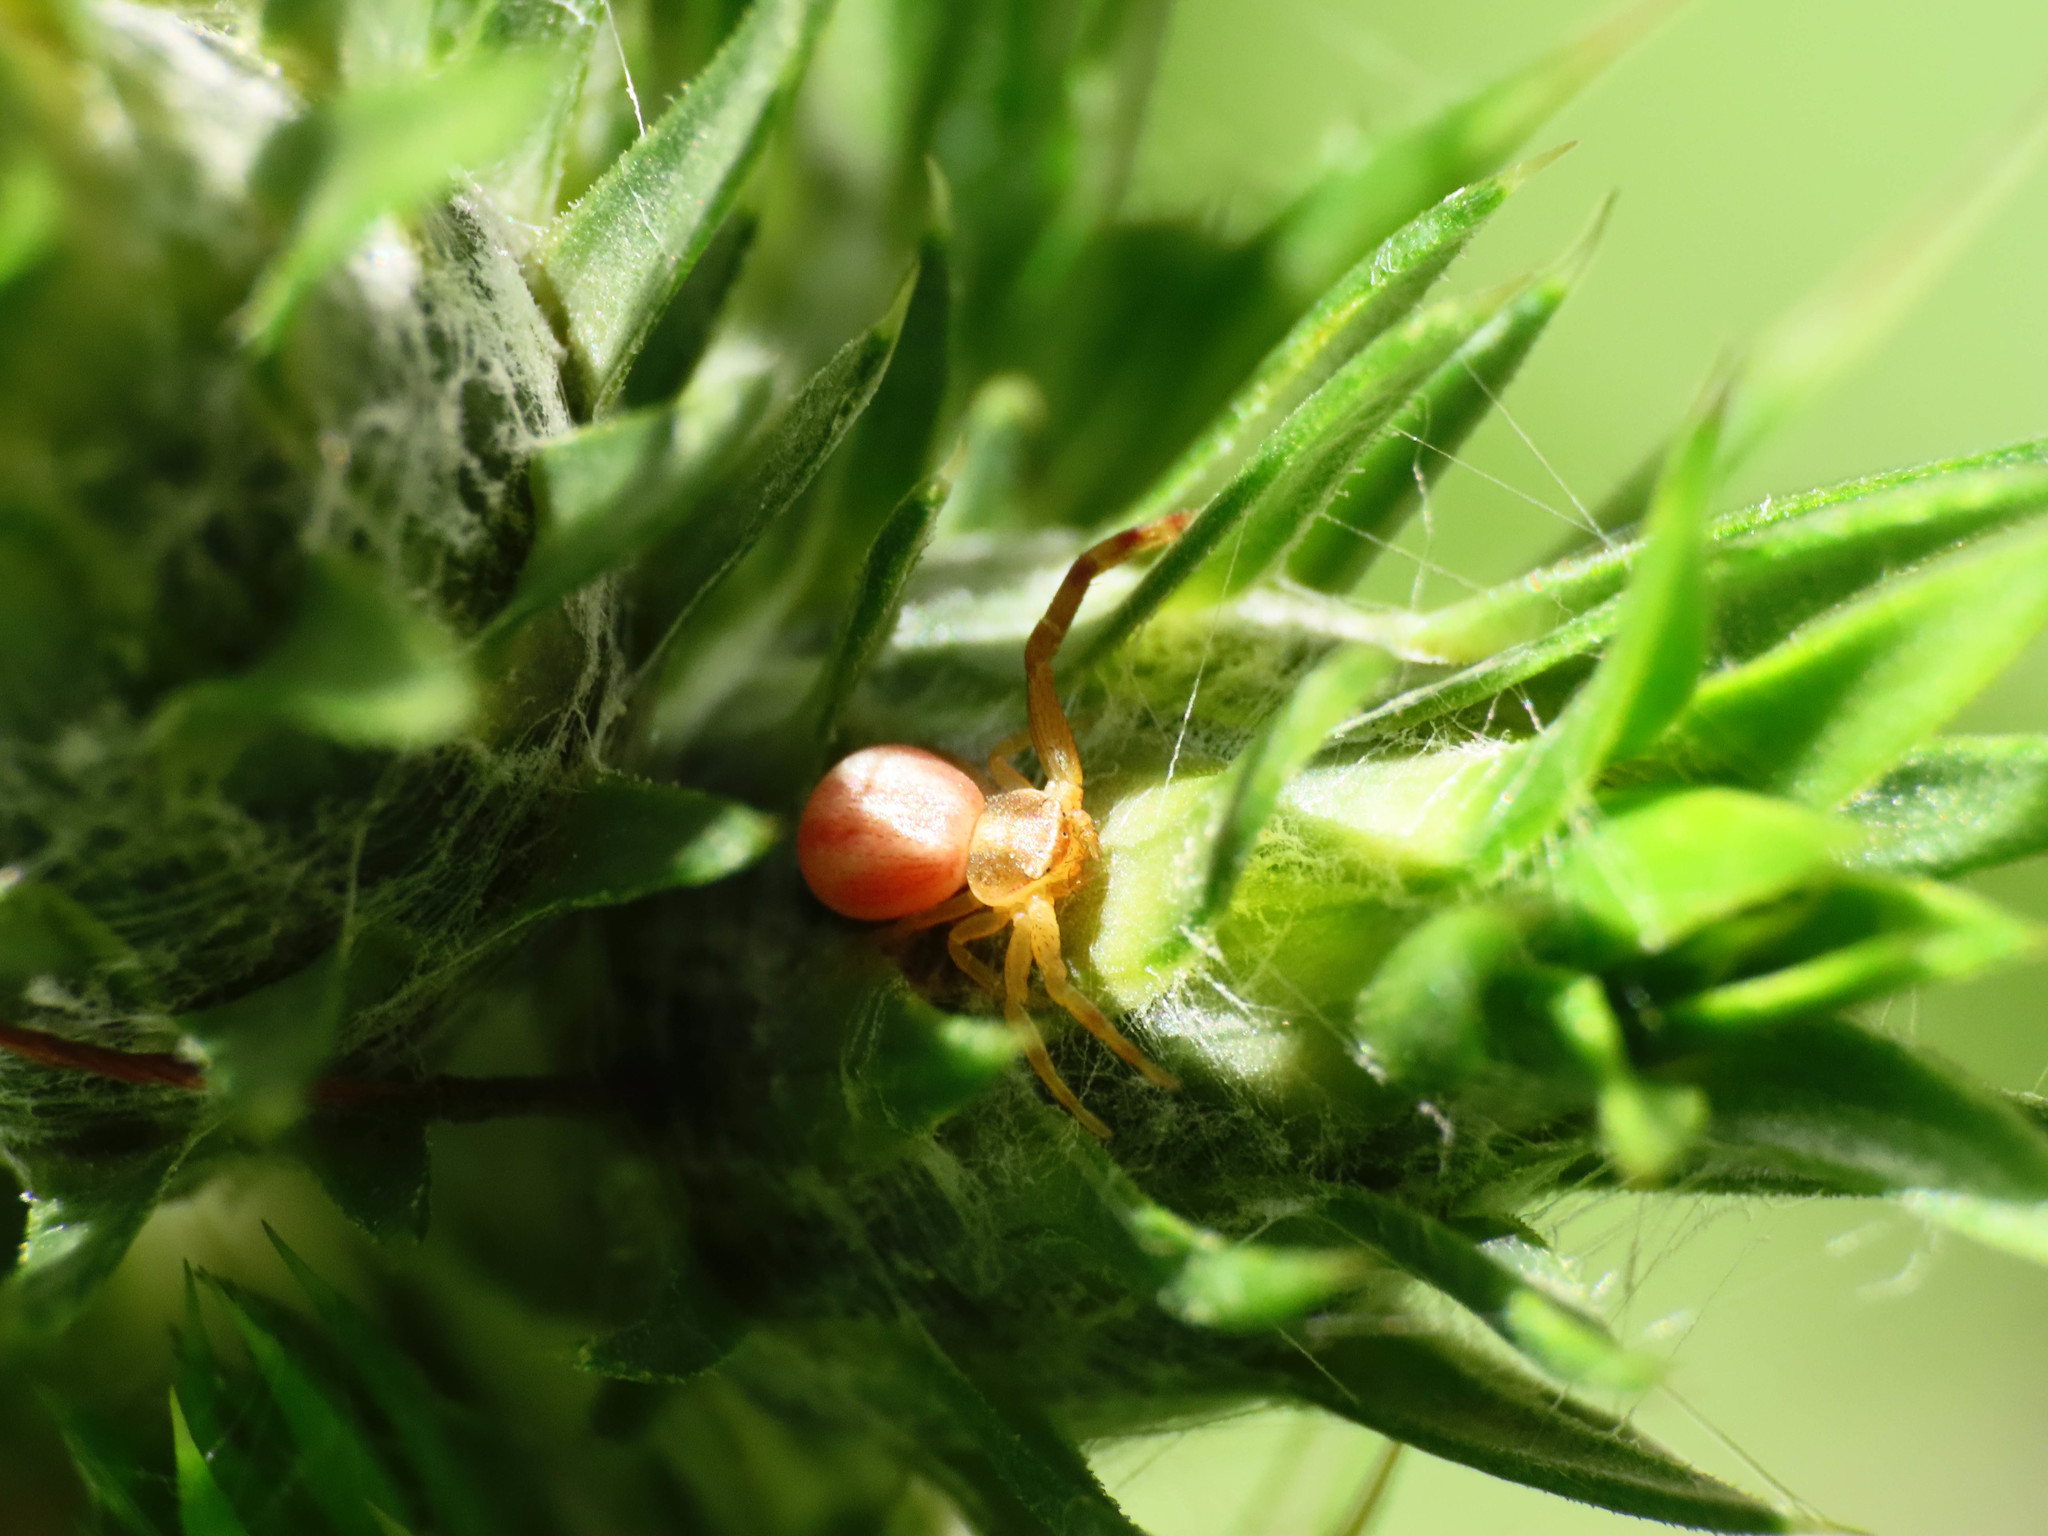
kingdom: Animalia
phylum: Arthropoda
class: Arachnida
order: Araneae
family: Thomisidae
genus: Runcinia
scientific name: Runcinia grammica
